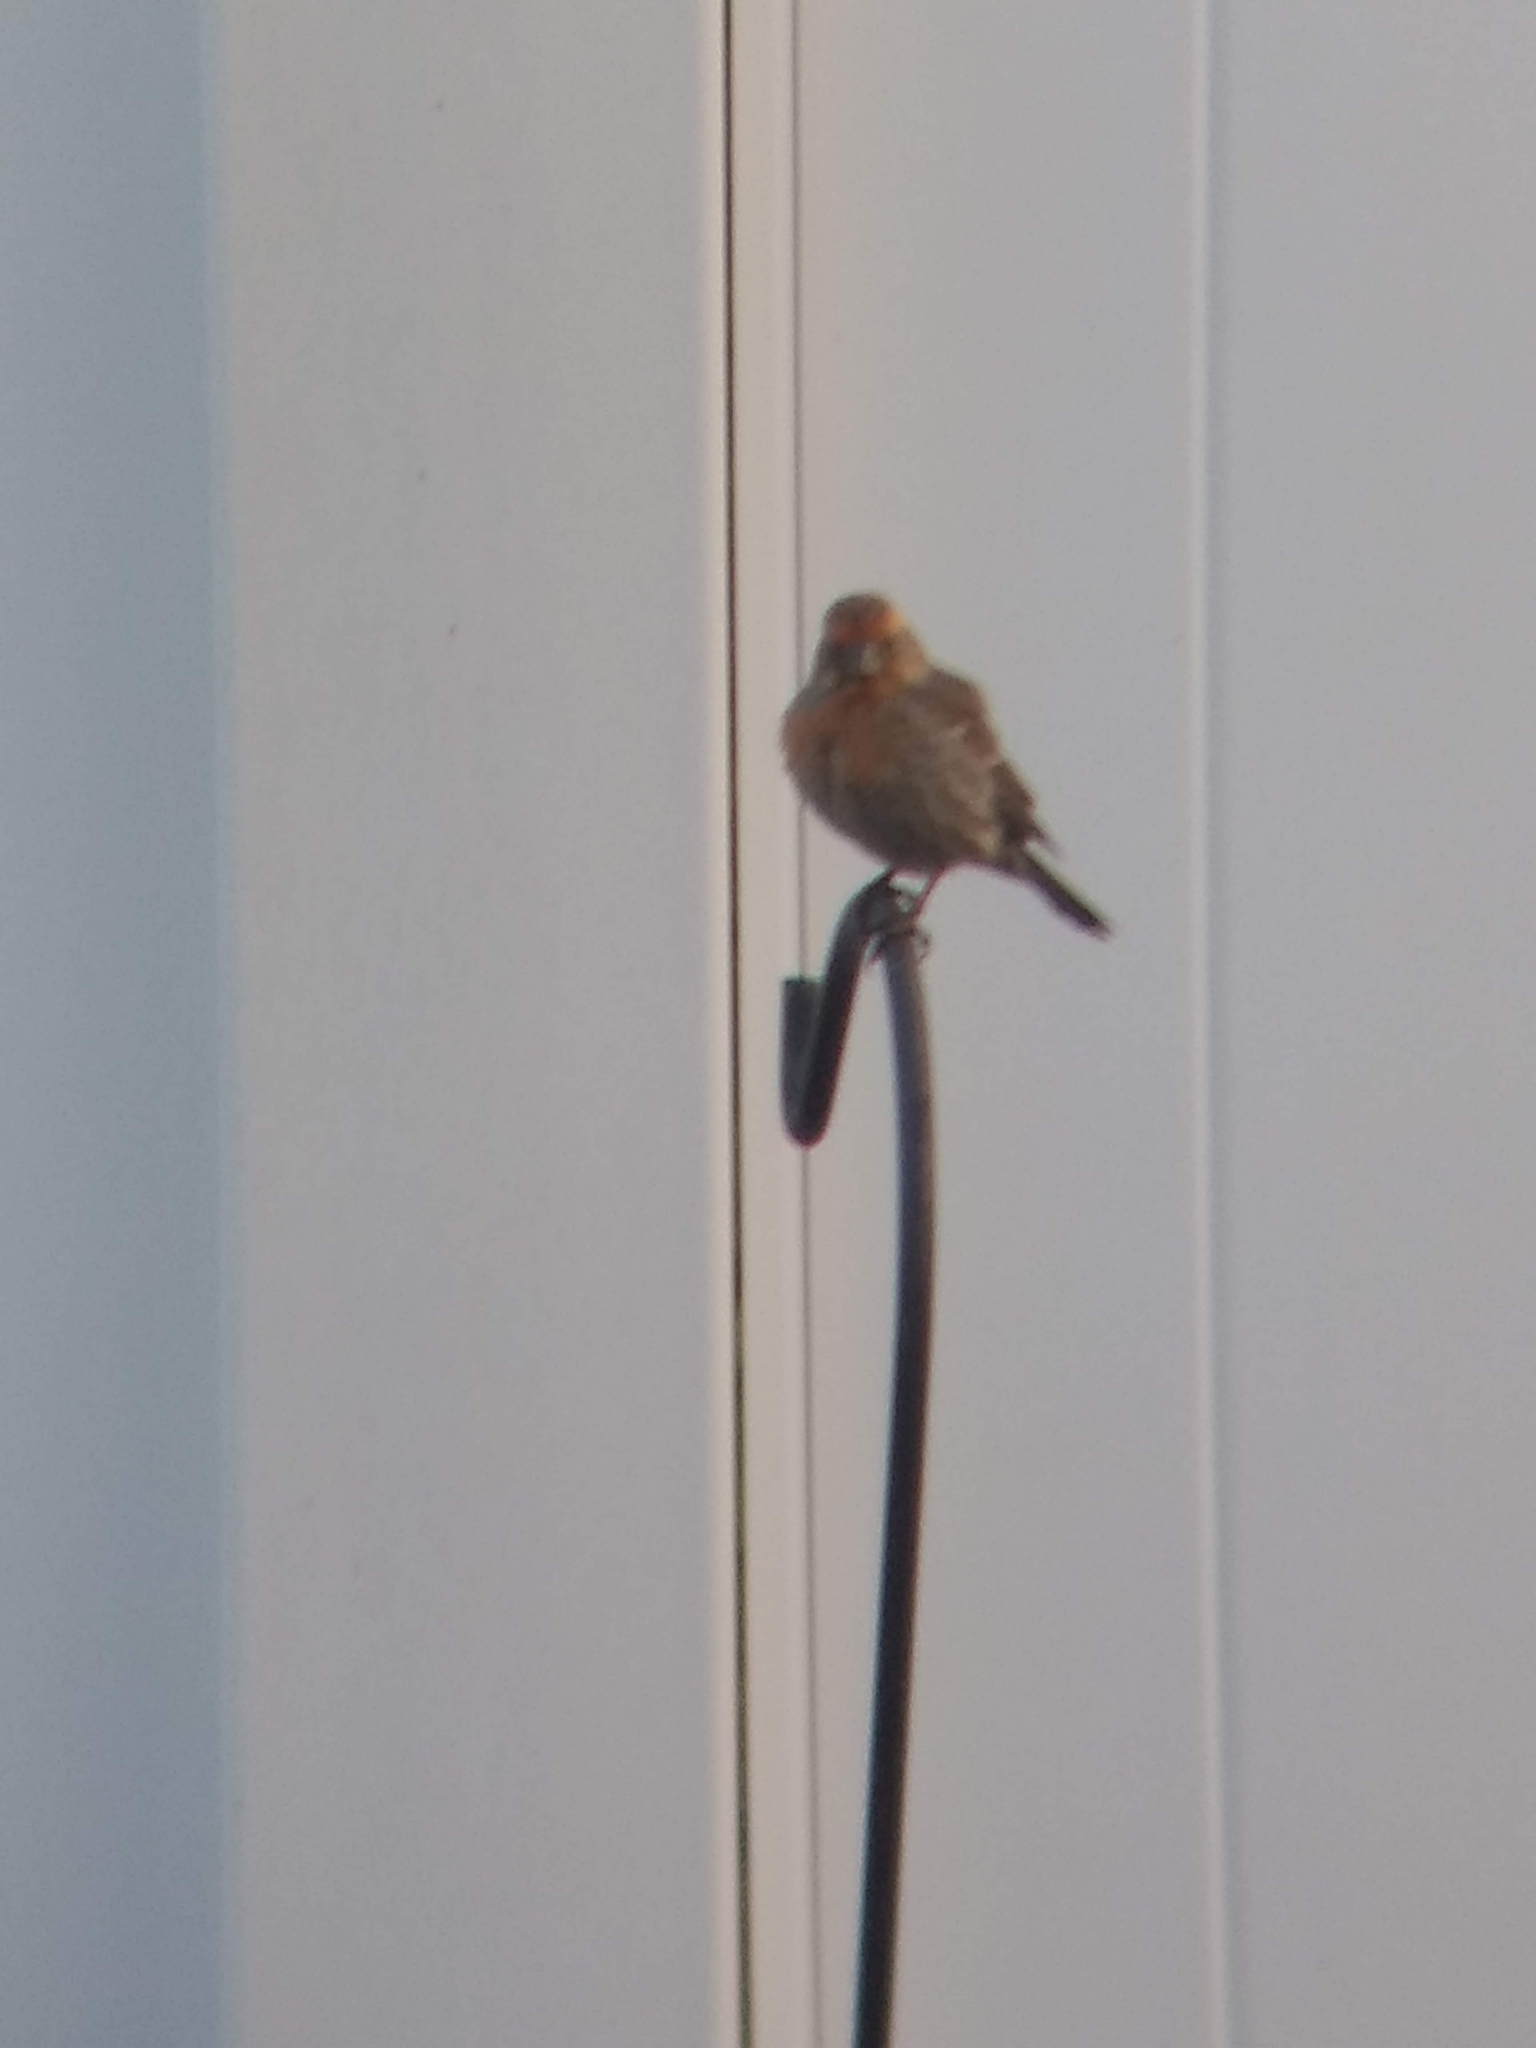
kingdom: Animalia
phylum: Chordata
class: Aves
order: Passeriformes
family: Fringillidae
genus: Haemorhous
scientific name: Haemorhous mexicanus
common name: House finch
